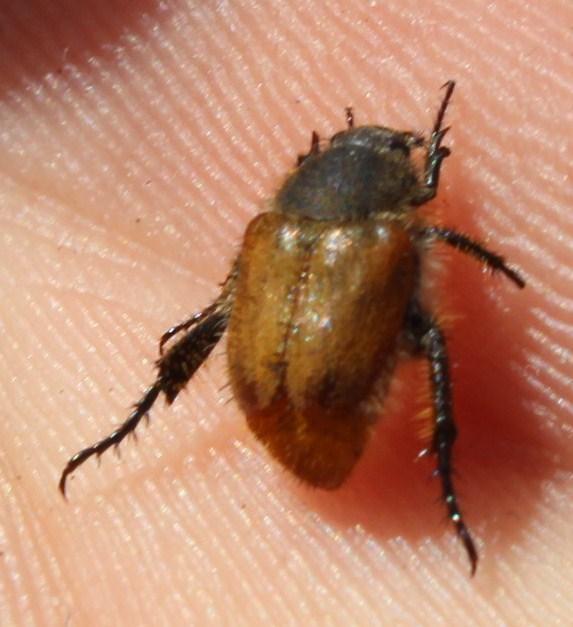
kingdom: Animalia
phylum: Arthropoda
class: Insecta
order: Coleoptera
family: Scarabaeidae
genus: Chasme
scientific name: Chasme decora
